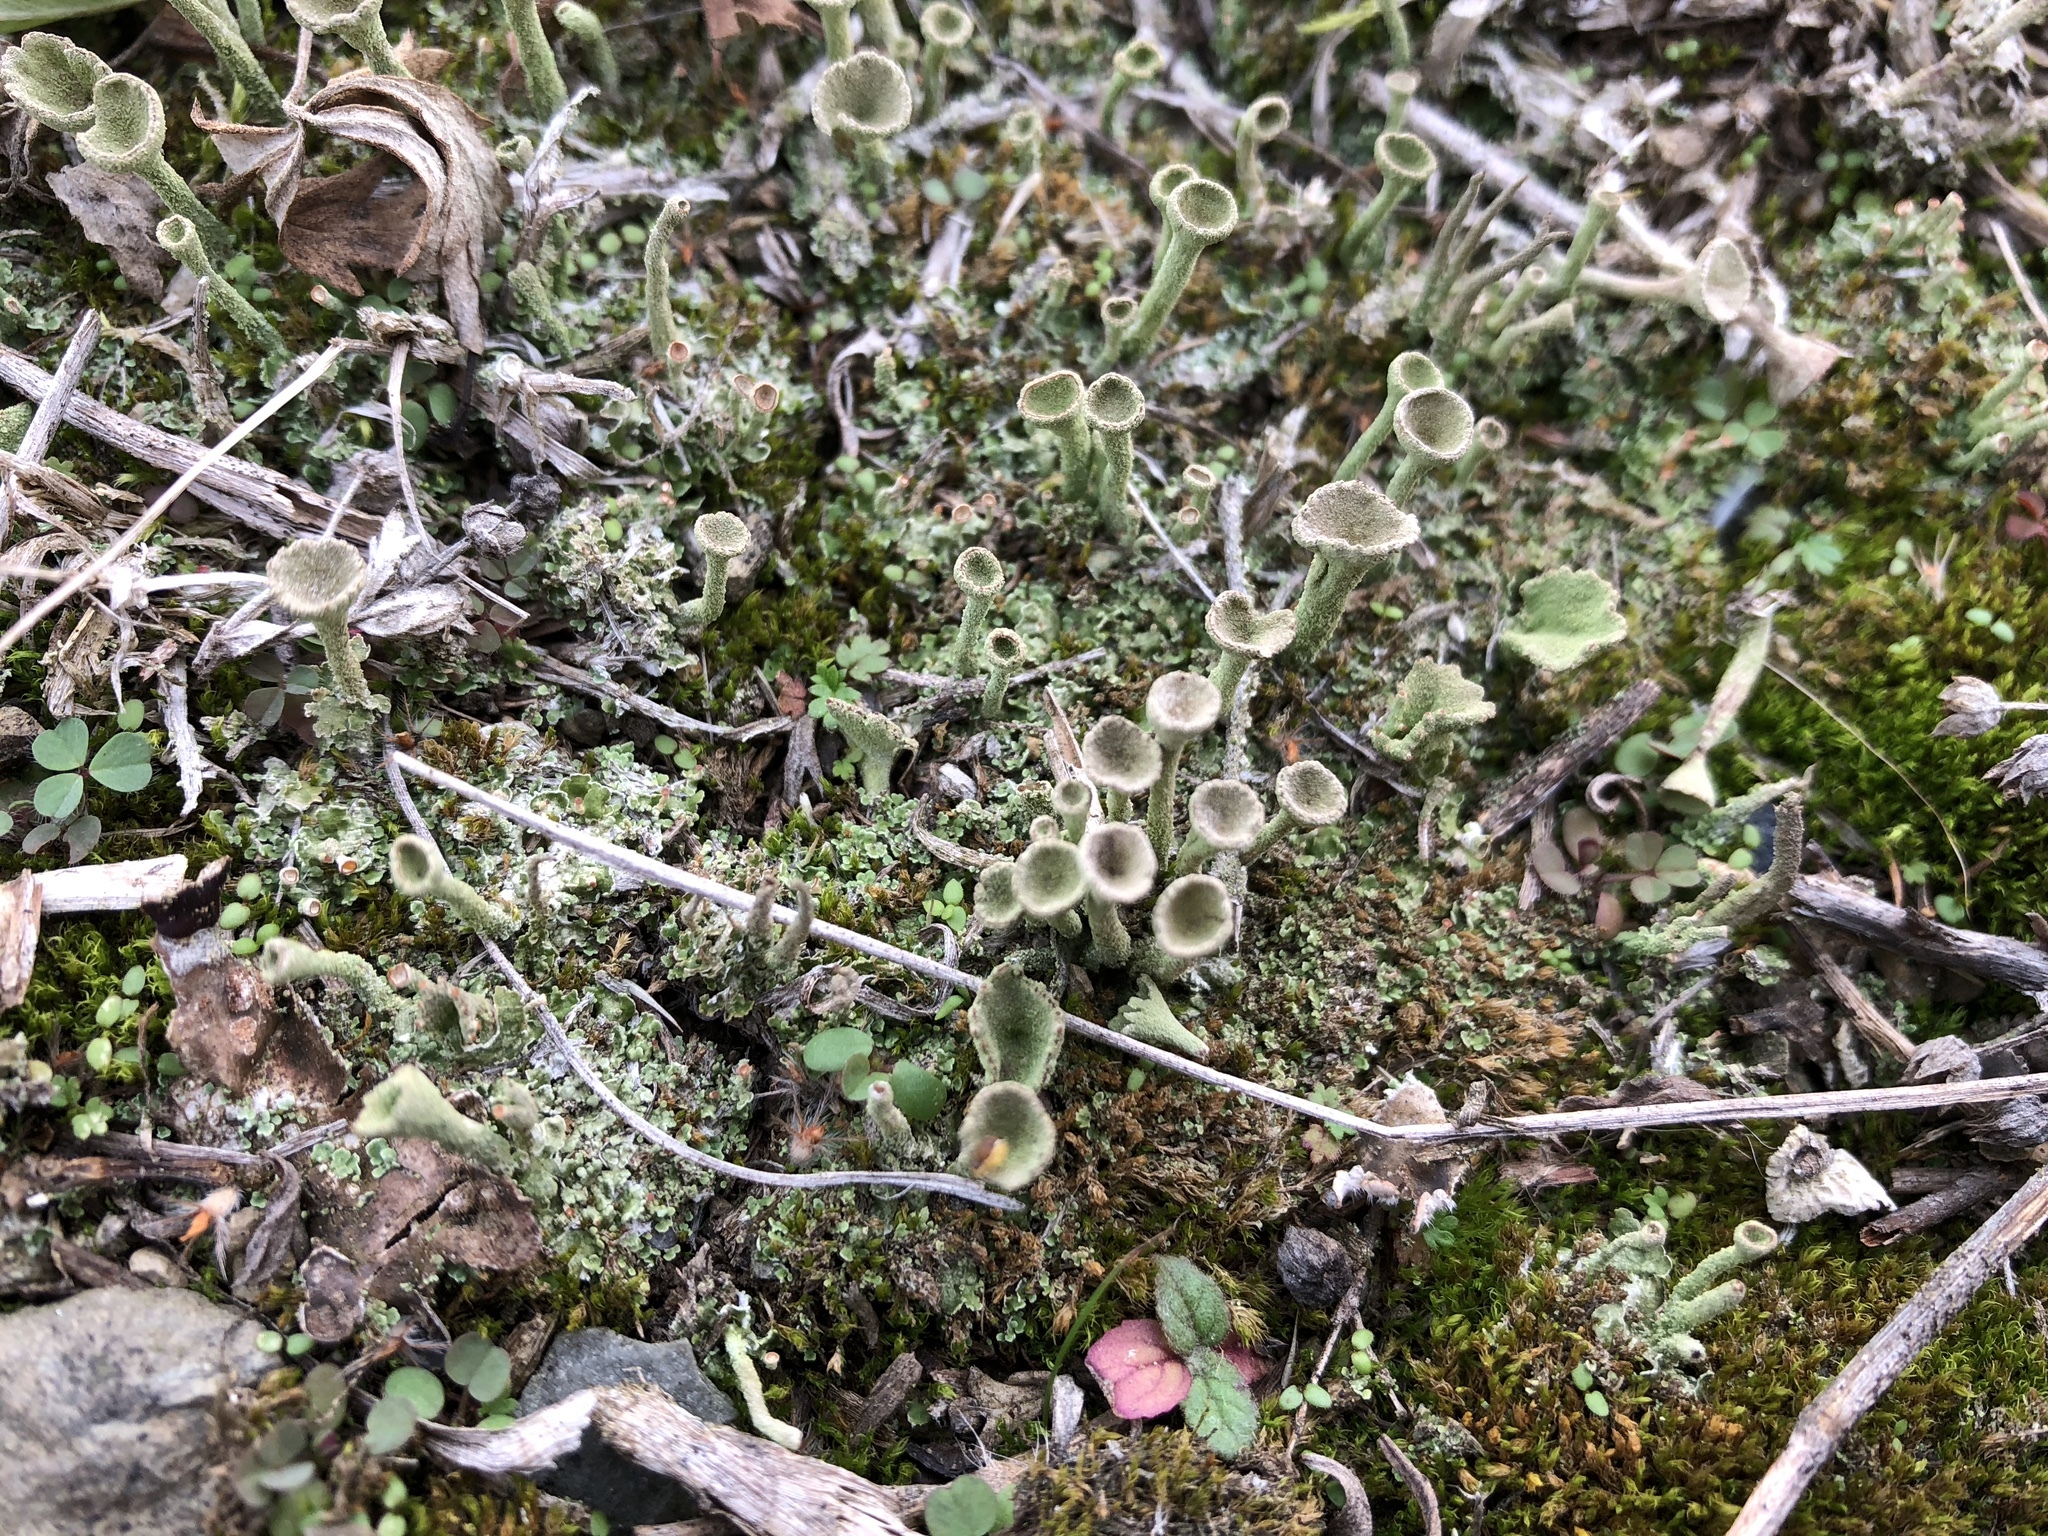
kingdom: Fungi
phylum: Ascomycota
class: Lecanoromycetes
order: Lecanorales
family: Cladoniaceae
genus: Cladonia
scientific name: Cladonia fimbriata
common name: Powdered trumpet lichen
